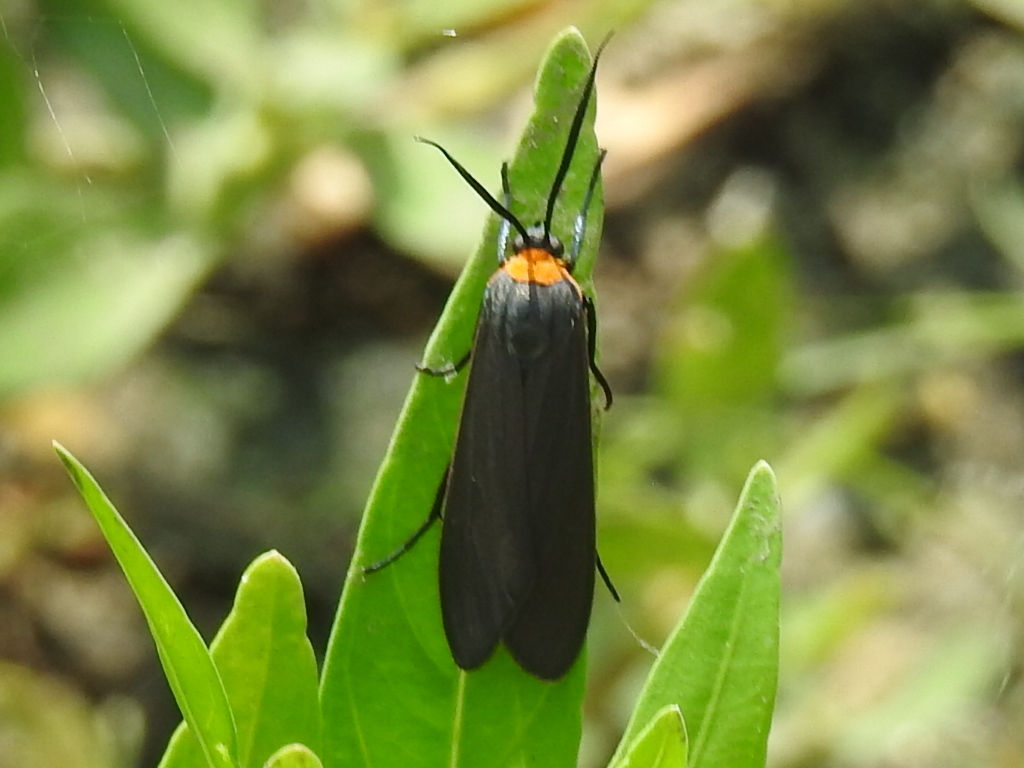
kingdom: Animalia
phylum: Arthropoda
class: Insecta
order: Lepidoptera
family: Erebidae
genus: Cisseps
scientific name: Cisseps fulvicollis
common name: Yellow-collared scape moth
